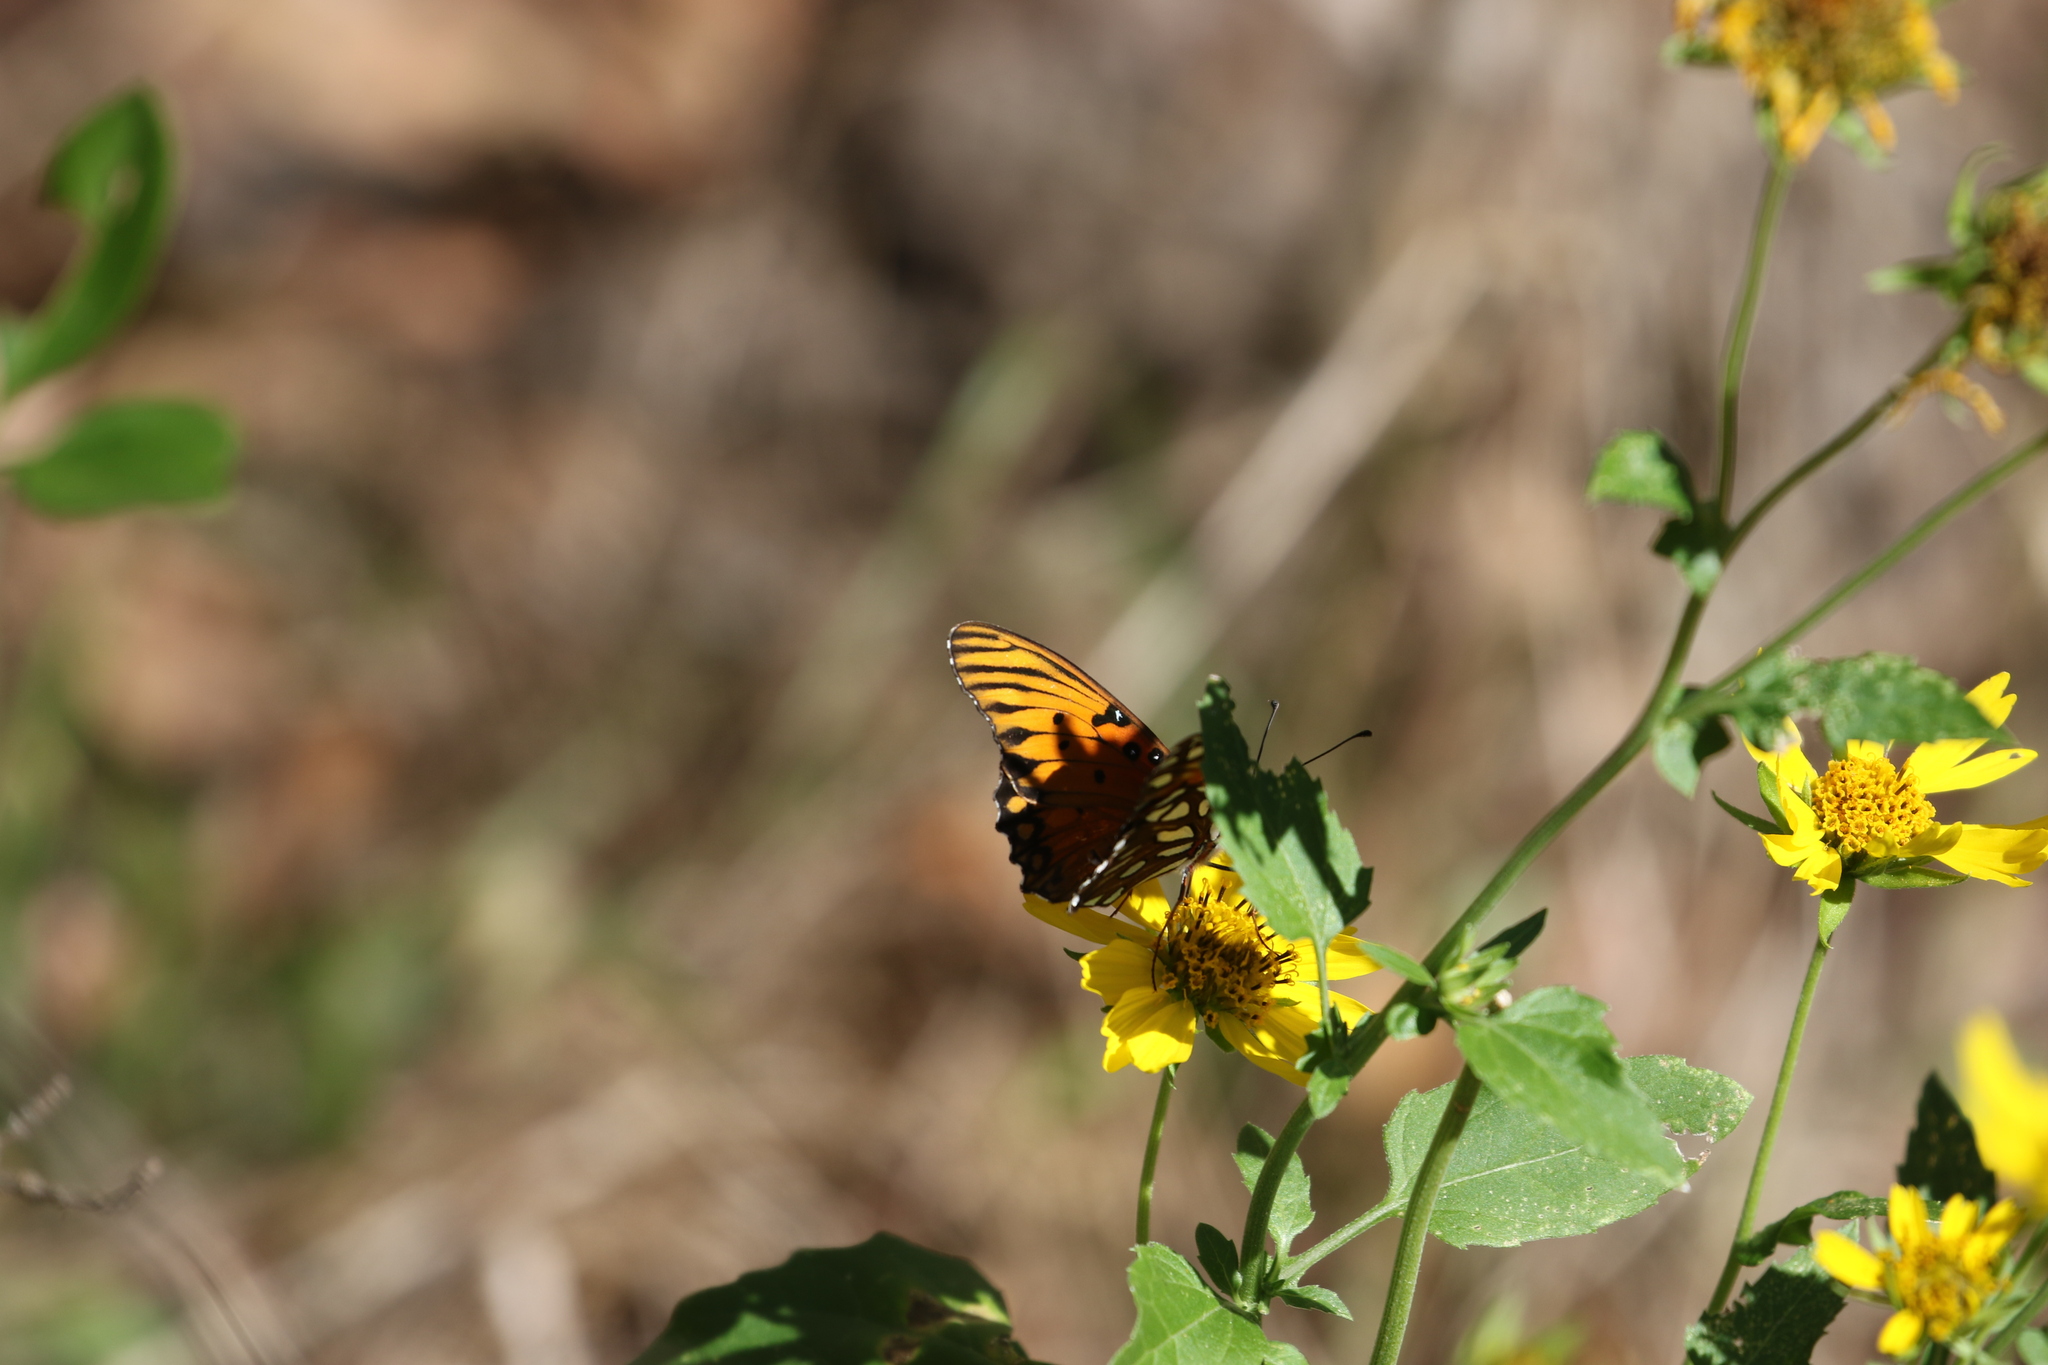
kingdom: Animalia
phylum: Arthropoda
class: Insecta
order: Lepidoptera
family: Nymphalidae
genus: Dione
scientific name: Dione vanillae
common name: Gulf fritillary
